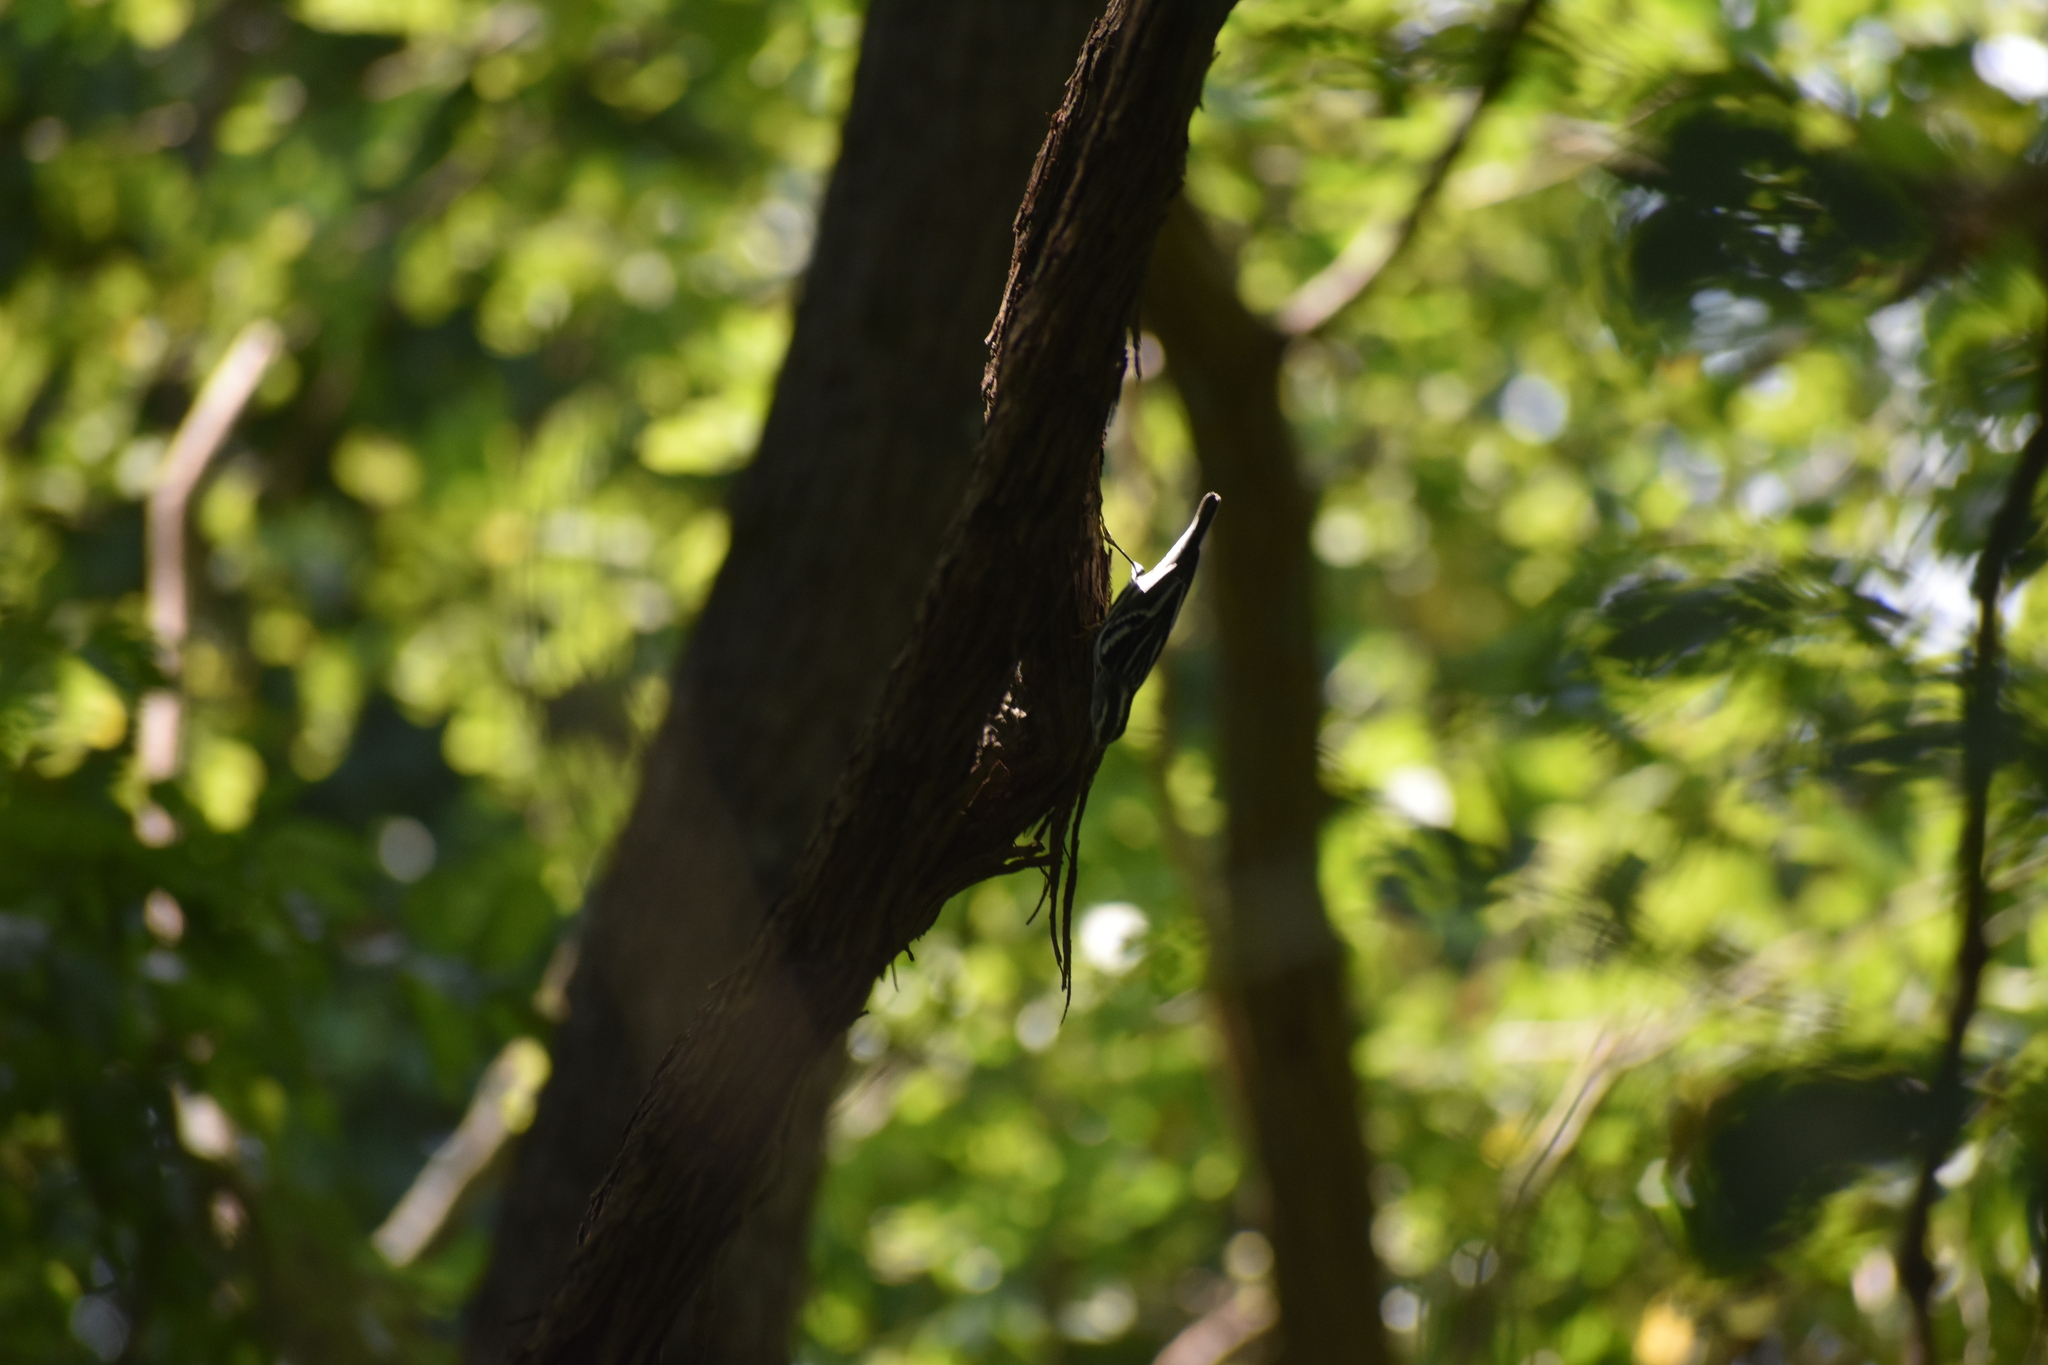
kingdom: Animalia
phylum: Chordata
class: Aves
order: Passeriformes
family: Parulidae
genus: Mniotilta
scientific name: Mniotilta varia
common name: Black-and-white warbler
